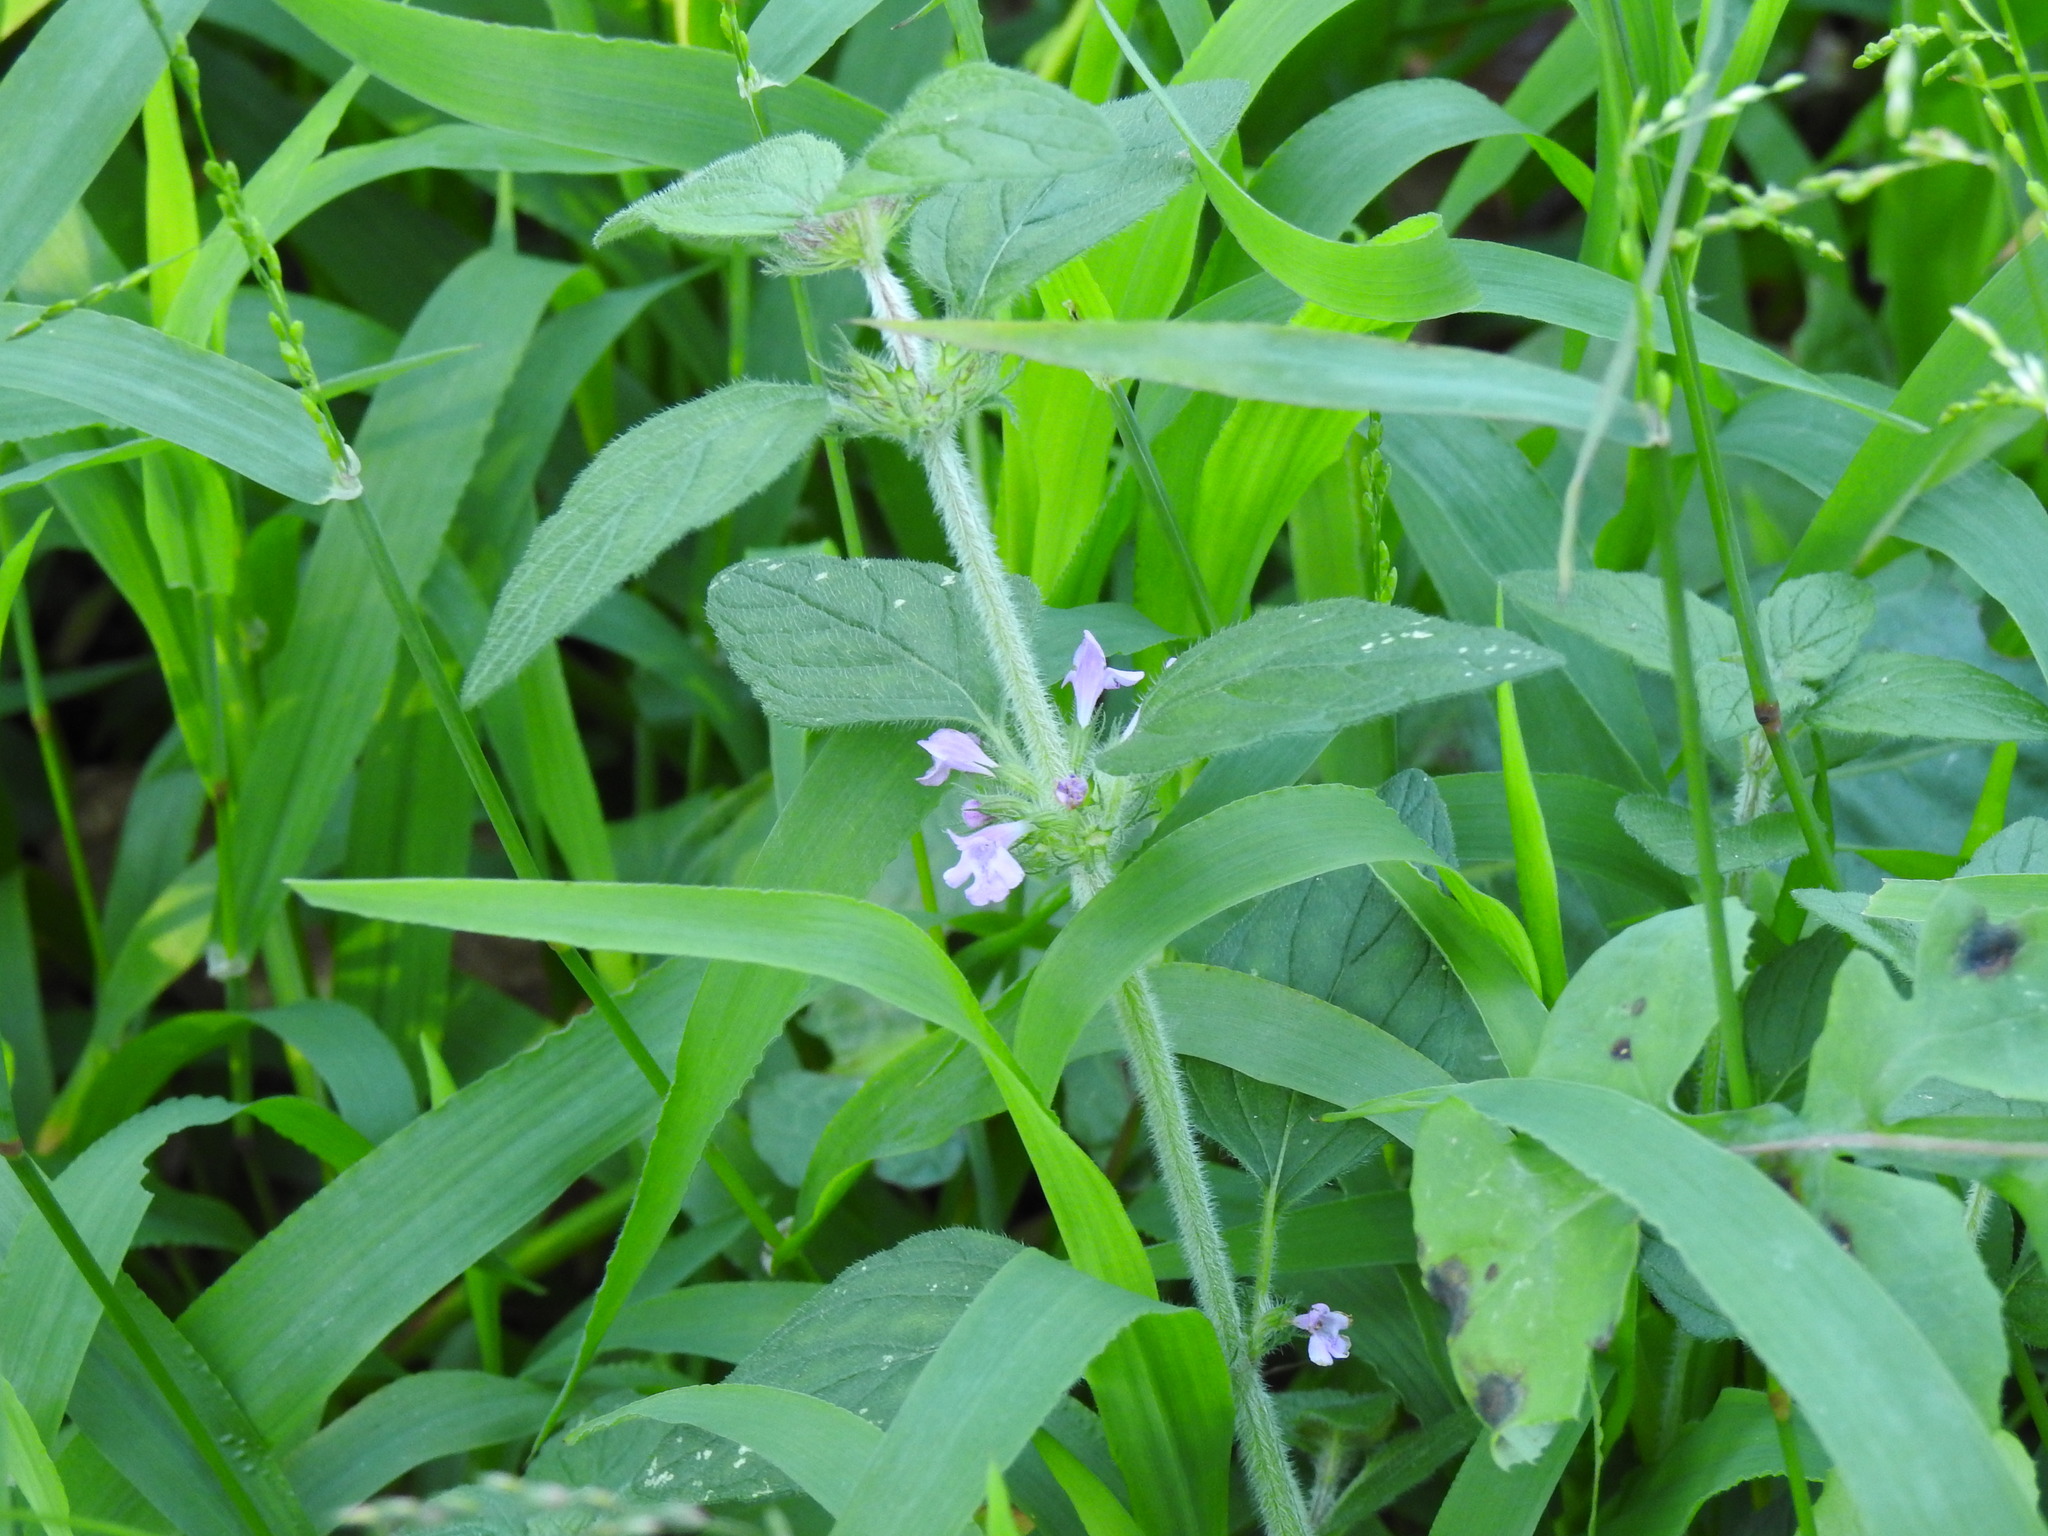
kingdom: Plantae
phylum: Tracheophyta
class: Magnoliopsida
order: Lamiales
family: Lamiaceae
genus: Clinopodium
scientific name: Clinopodium vulgare
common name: Wild basil
